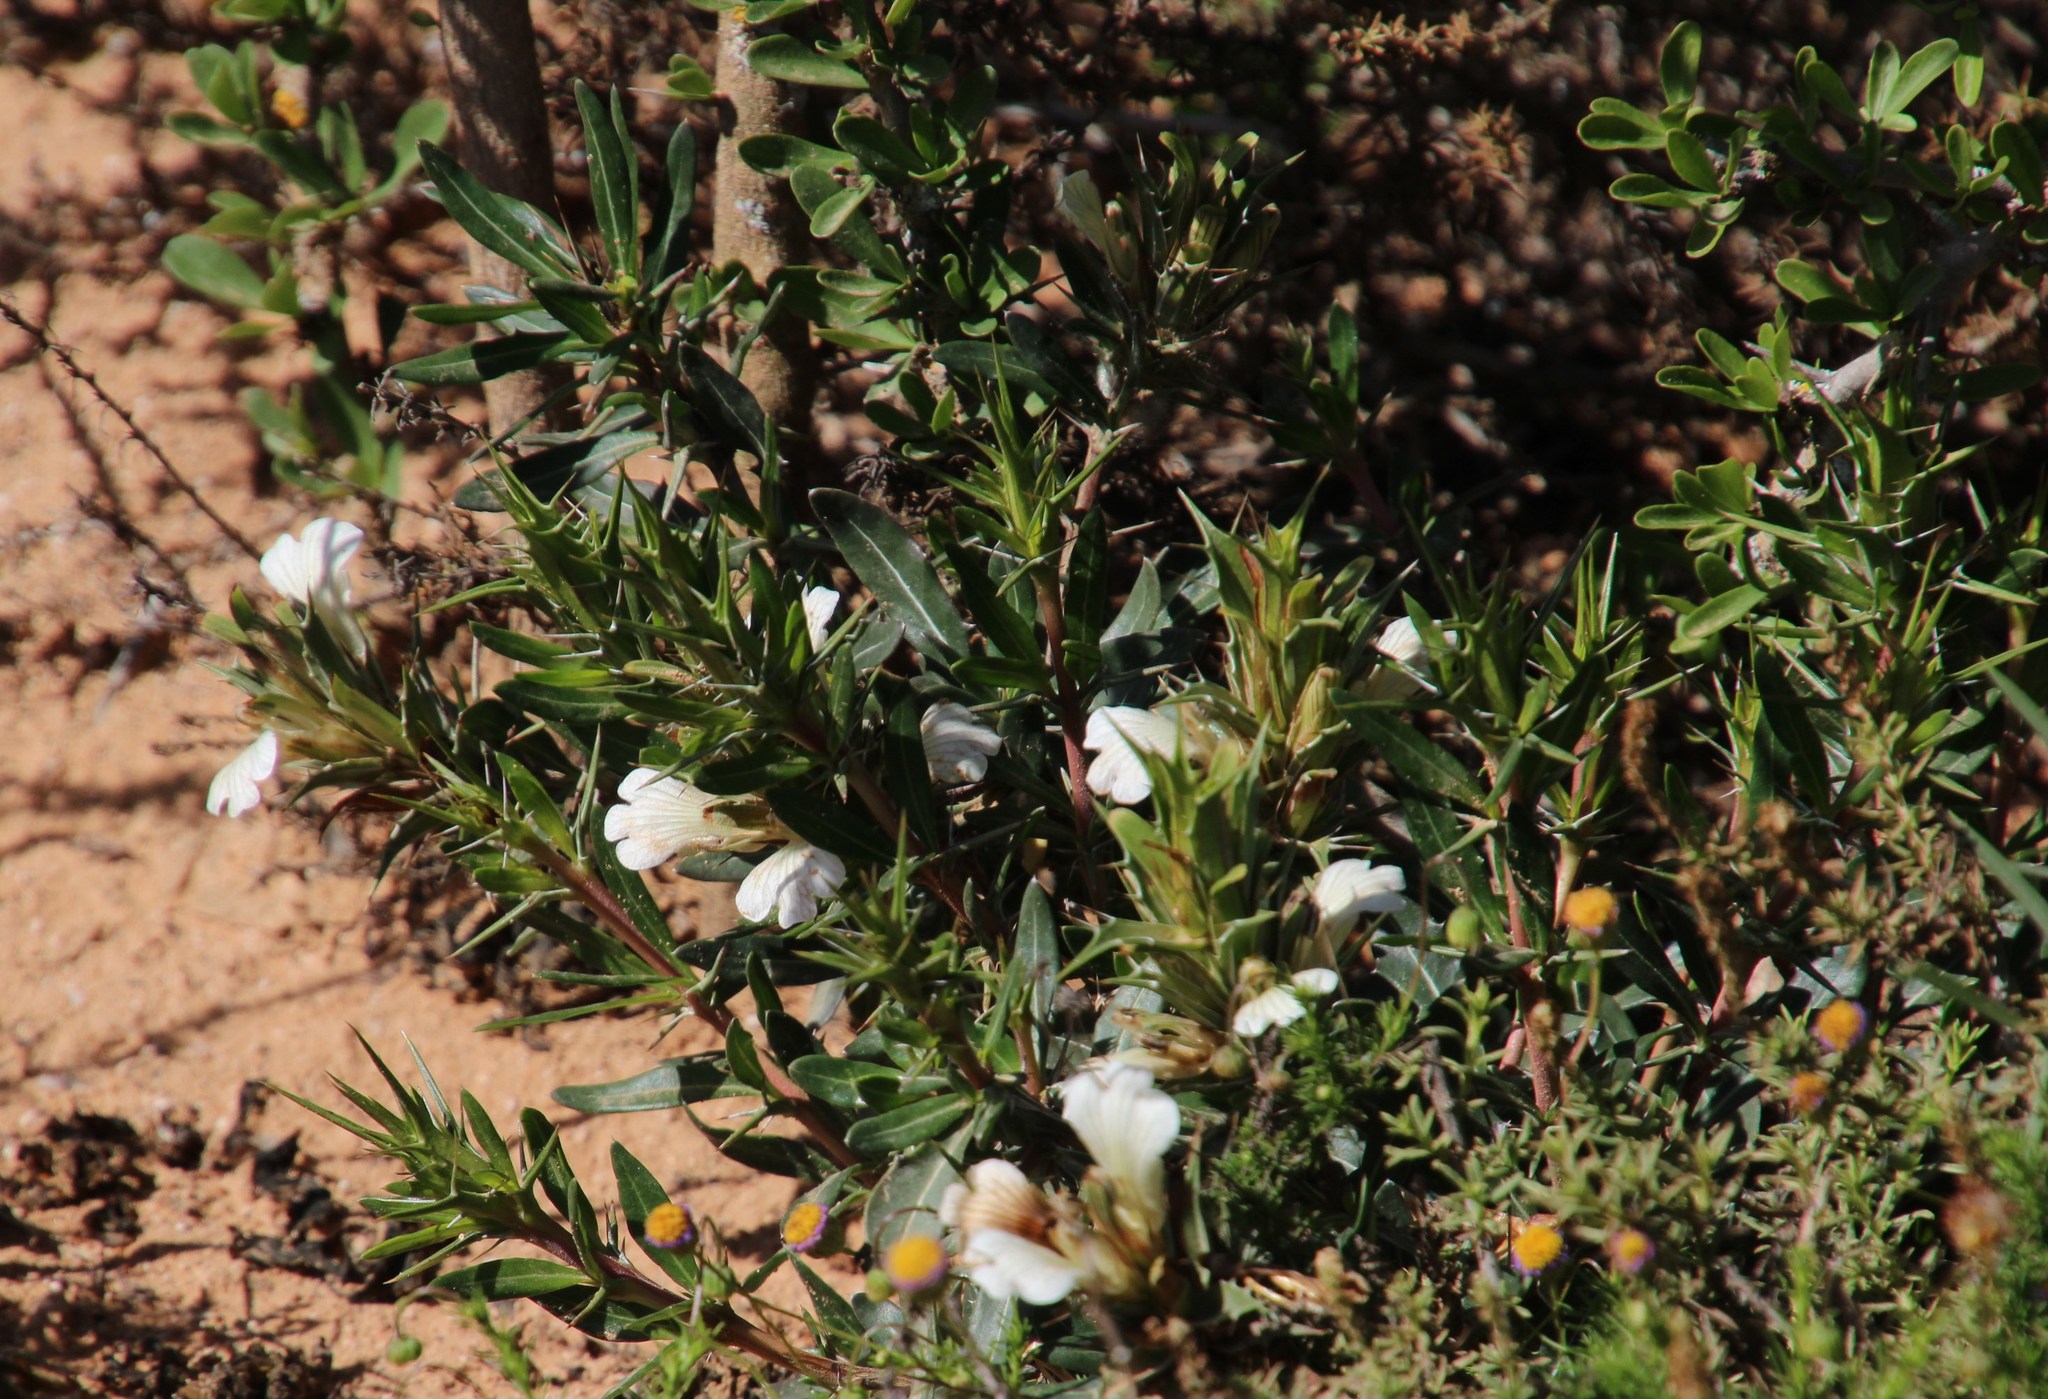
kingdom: Plantae
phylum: Tracheophyta
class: Magnoliopsida
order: Lamiales
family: Acanthaceae
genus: Blepharis
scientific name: Blepharis capensis
